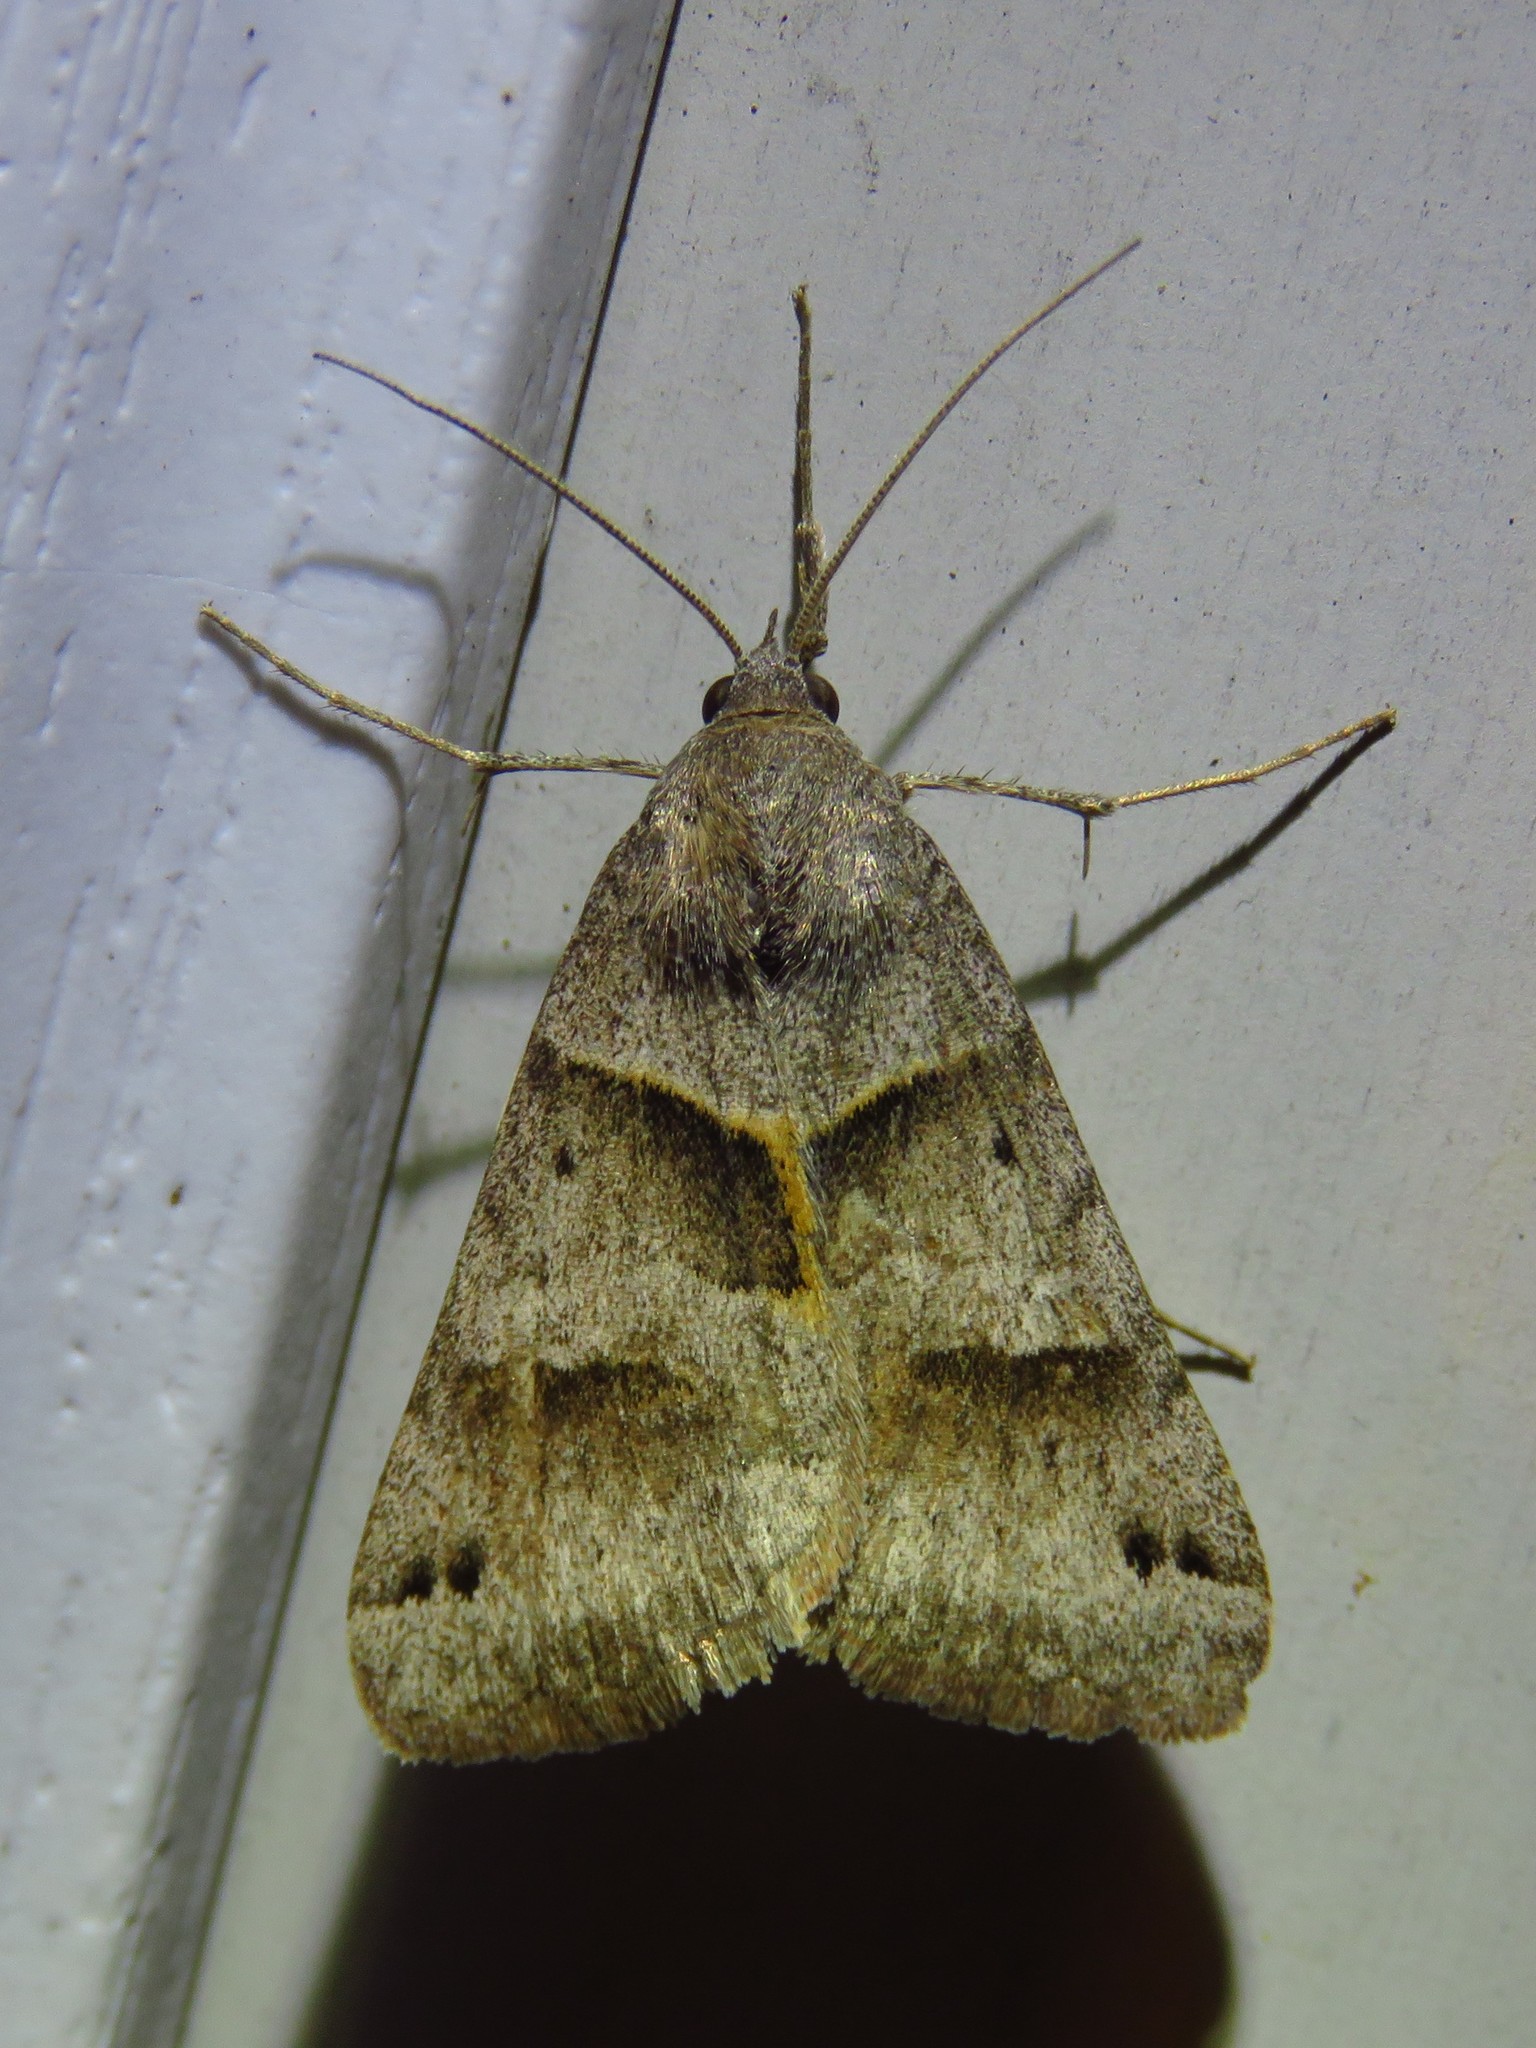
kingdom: Animalia
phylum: Arthropoda
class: Insecta
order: Lepidoptera
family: Erebidae
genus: Caenurgina
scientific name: Caenurgina erechtea
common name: Forage looper moth
